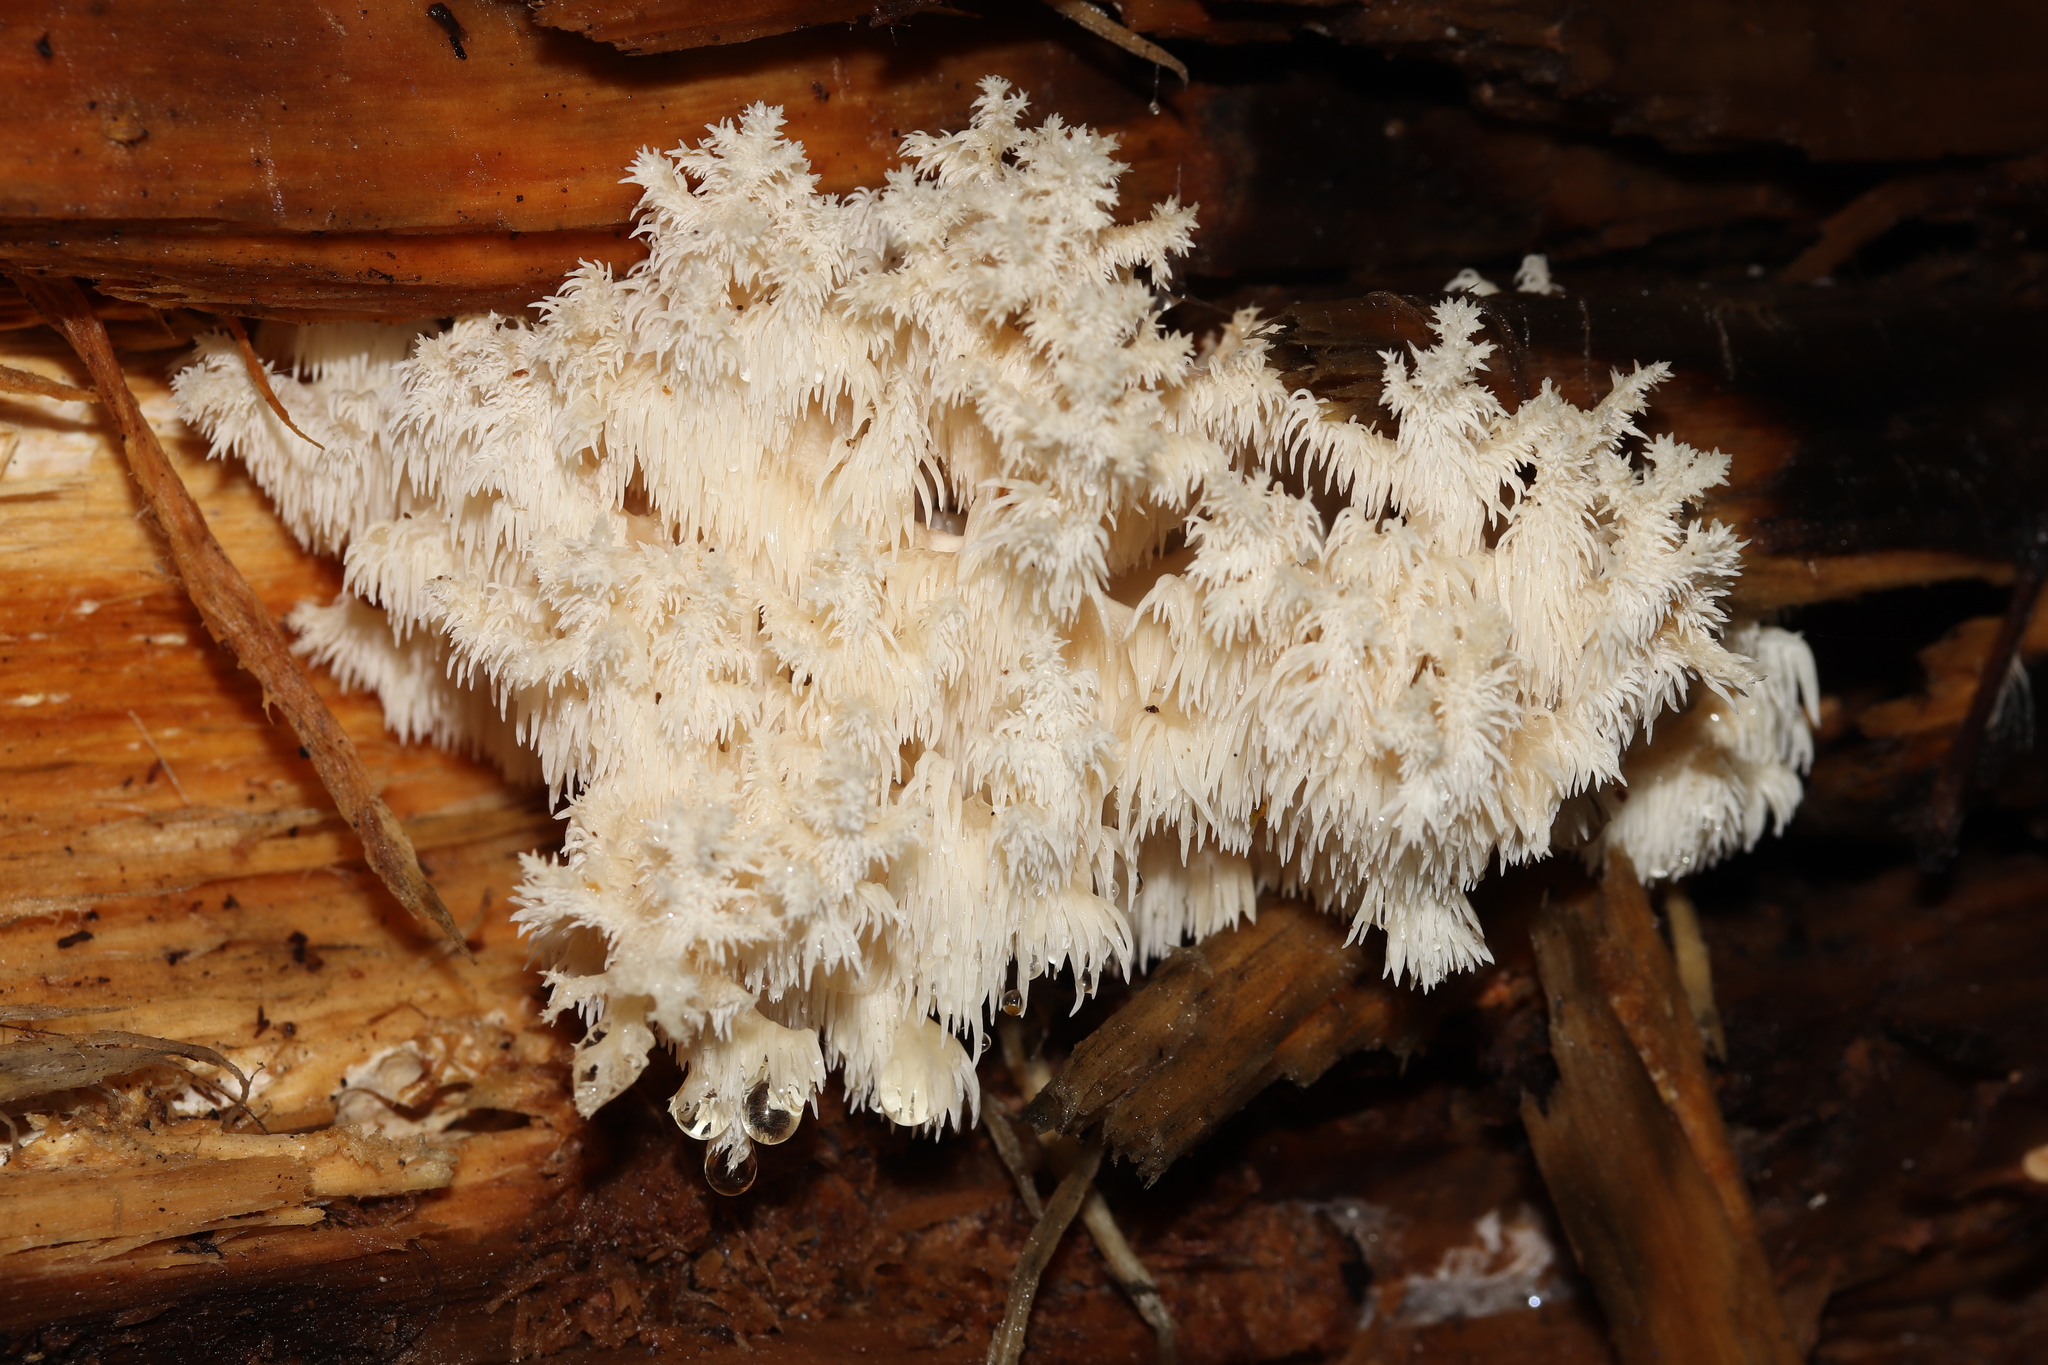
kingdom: Fungi
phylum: Basidiomycota
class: Agaricomycetes
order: Russulales
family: Hericiaceae
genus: Hericium
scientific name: Hericium coralloides
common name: Coral tooth
